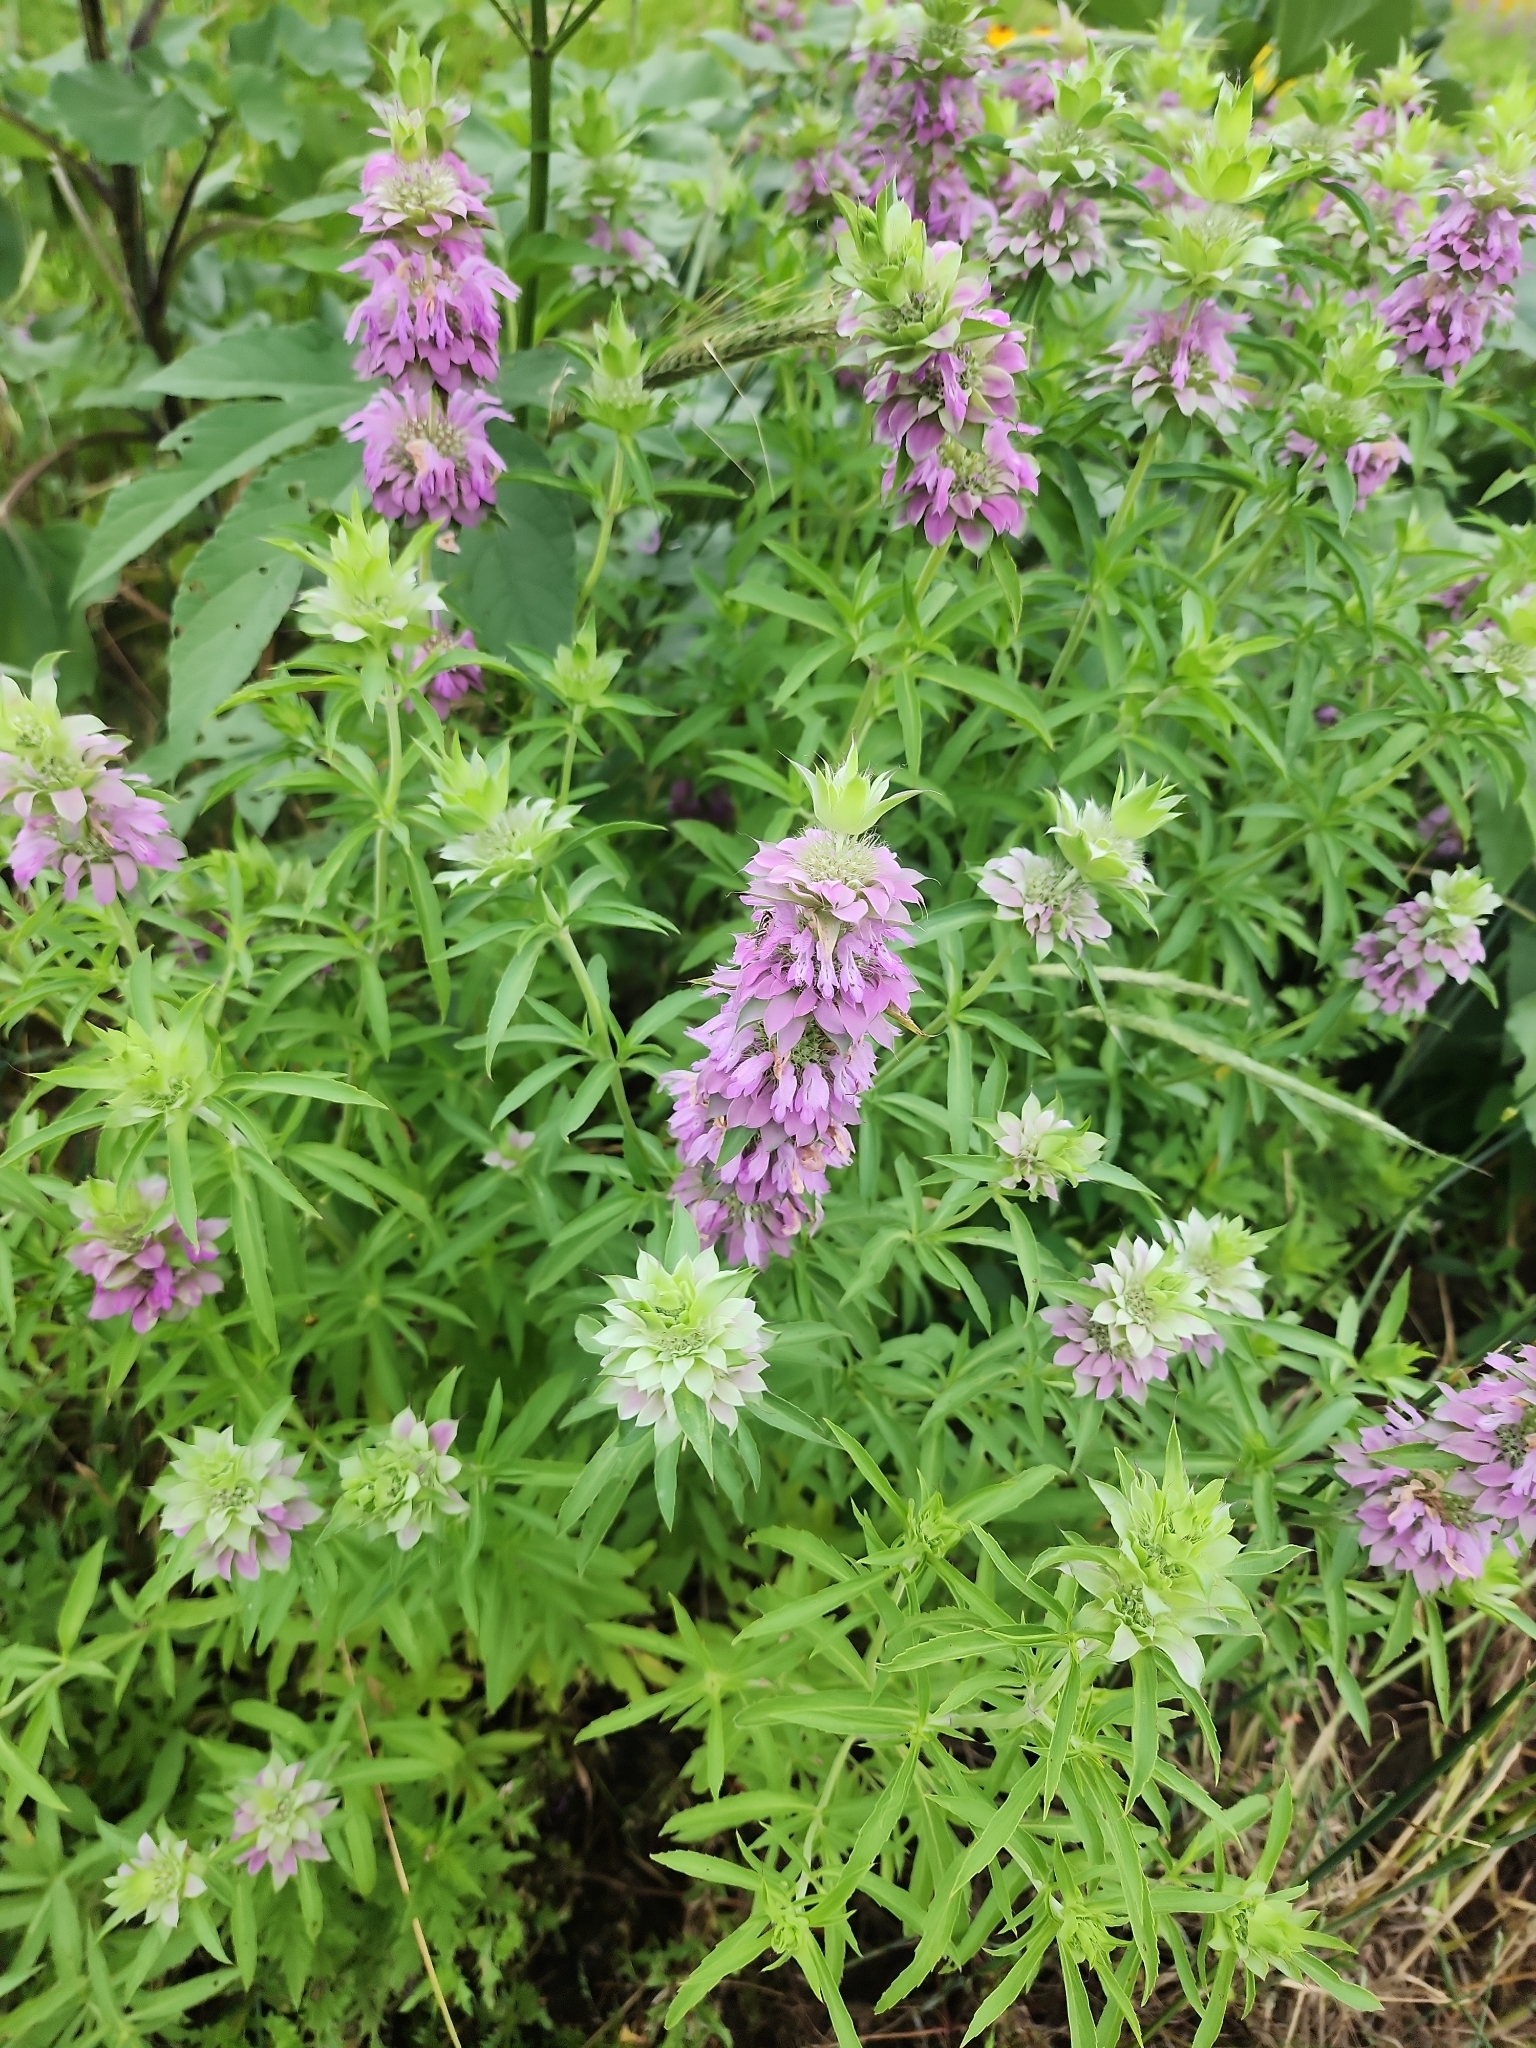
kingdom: Plantae
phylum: Tracheophyta
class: Magnoliopsida
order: Lamiales
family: Lamiaceae
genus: Monarda
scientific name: Monarda citriodora
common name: Lemon beebalm
